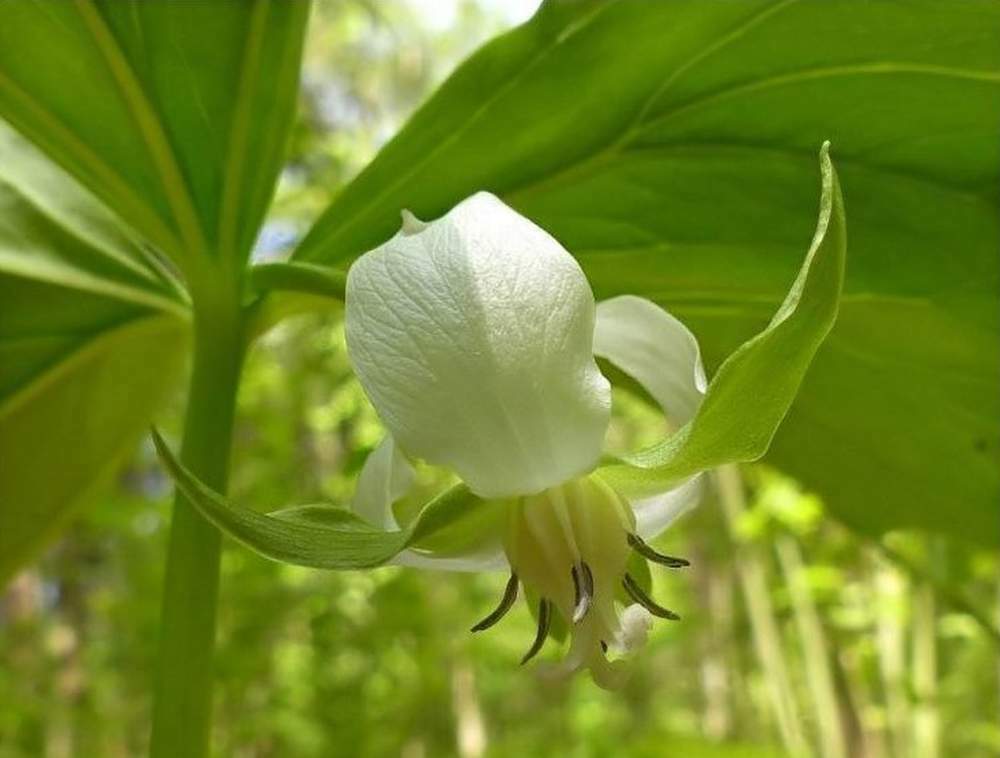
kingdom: Plantae
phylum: Tracheophyta
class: Liliopsida
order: Liliales
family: Melanthiaceae
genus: Trillium
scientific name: Trillium cernuum
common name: Nodding trillium
